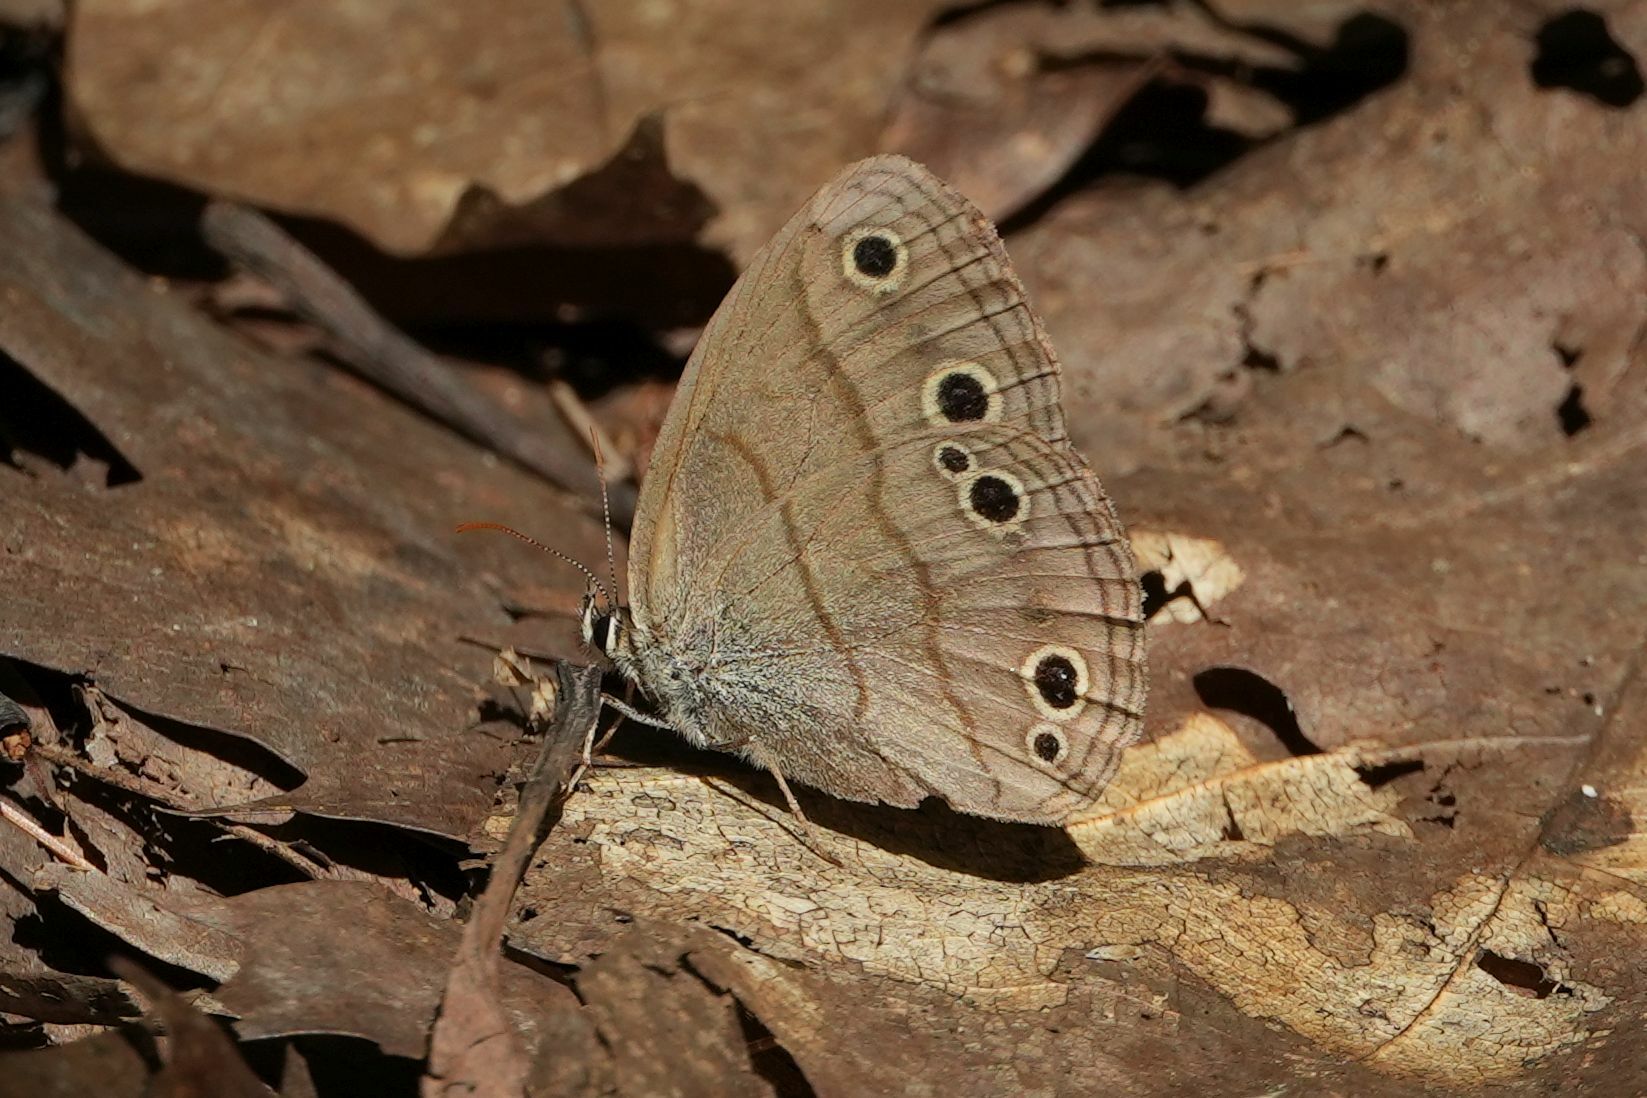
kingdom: Animalia
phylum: Arthropoda
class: Insecta
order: Lepidoptera
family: Nymphalidae
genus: Euptychia
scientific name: Euptychia cymela
